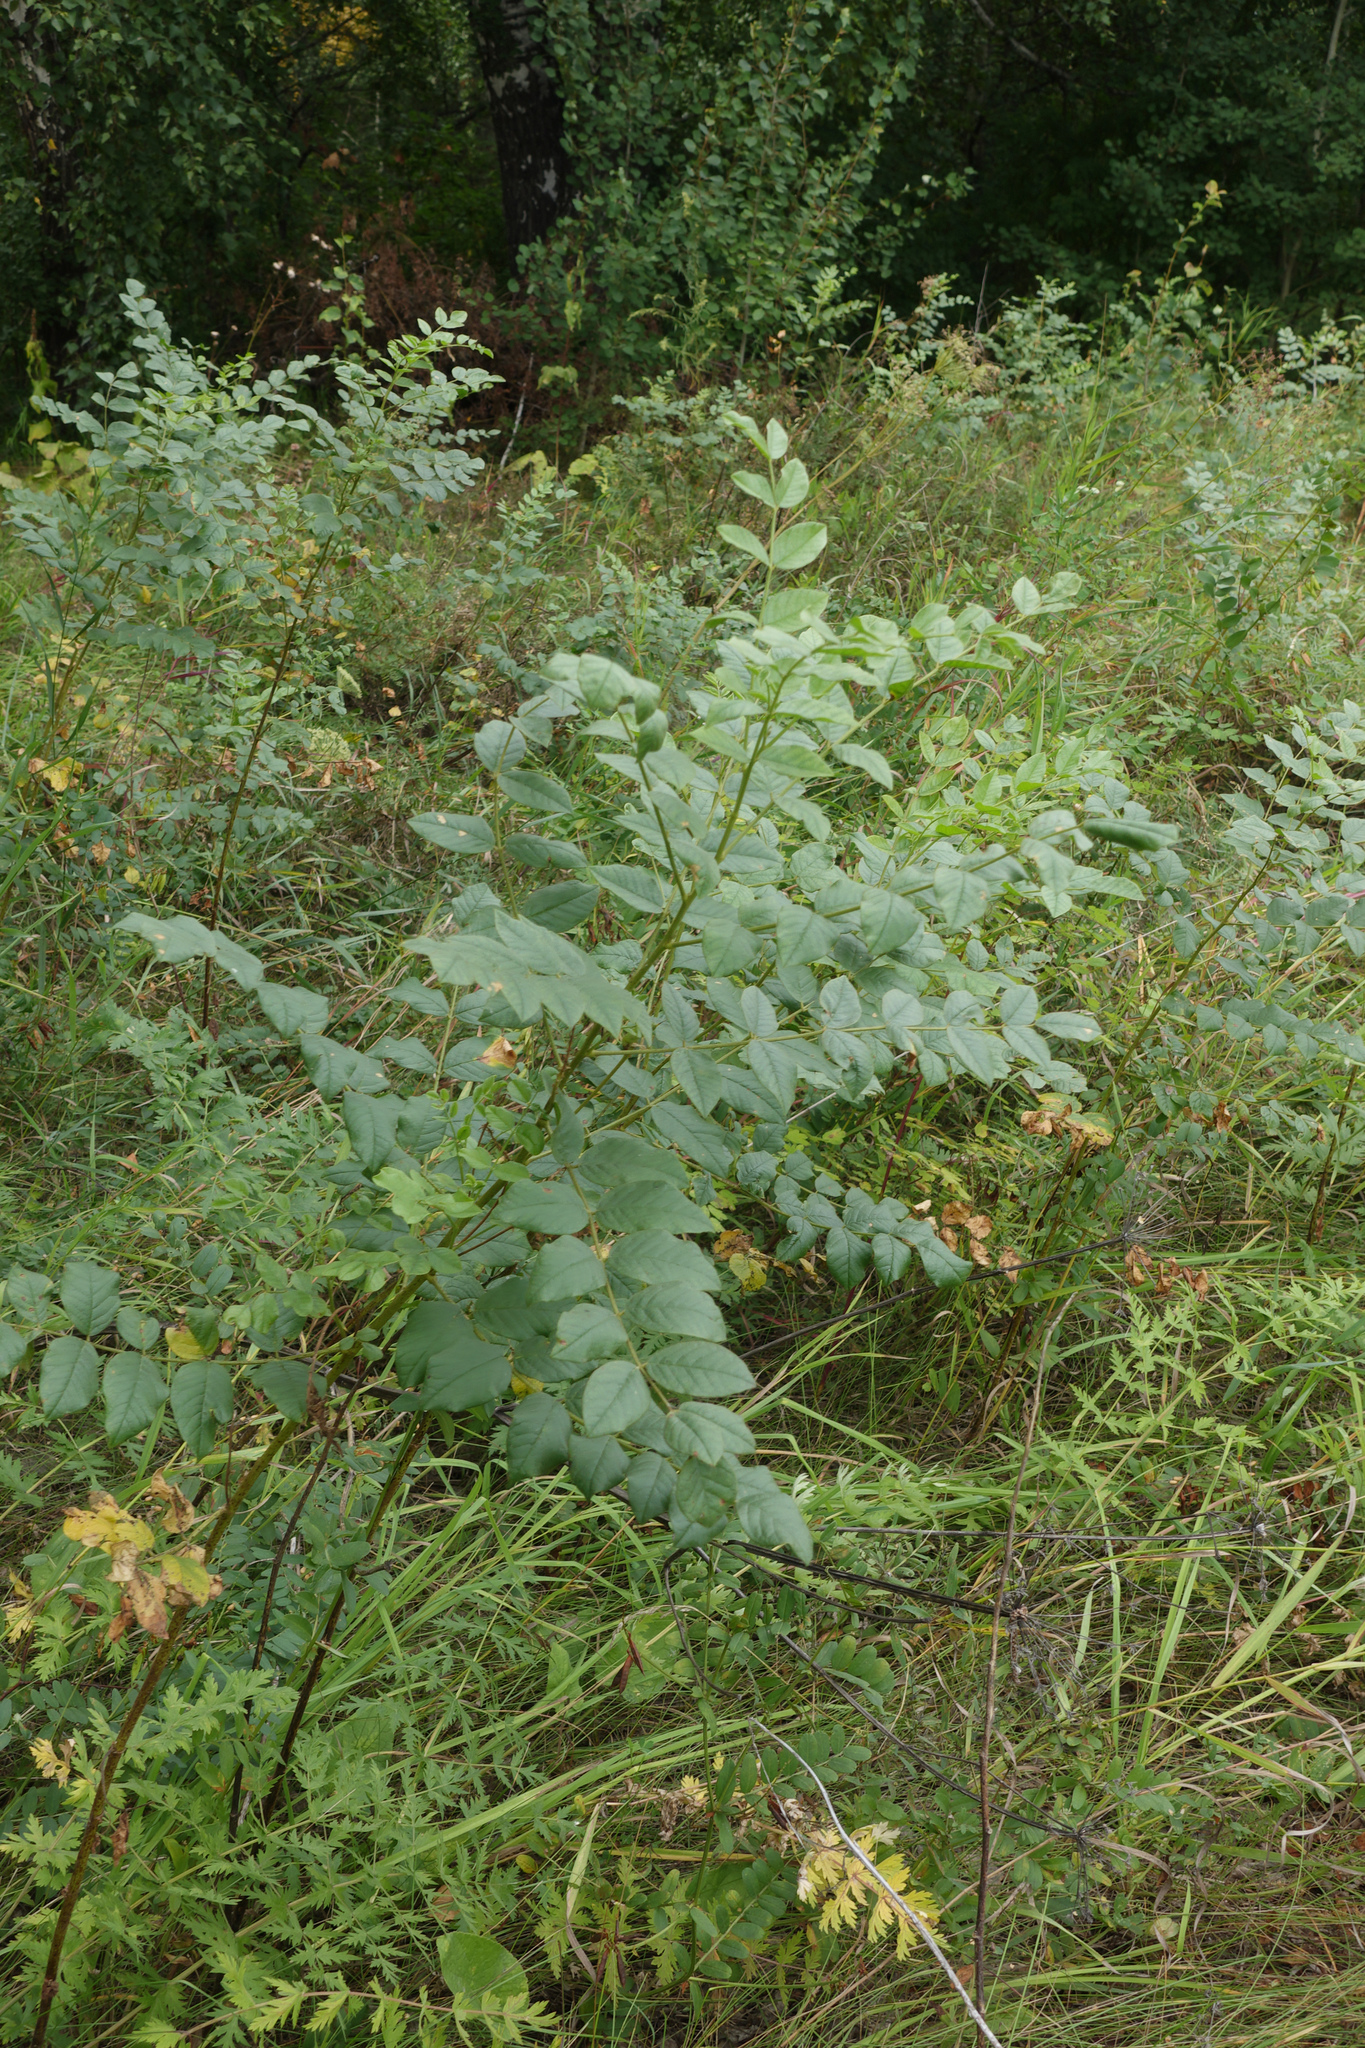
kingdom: Plantae
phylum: Tracheophyta
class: Magnoliopsida
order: Fabales
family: Fabaceae
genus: Glycyrrhiza
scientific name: Glycyrrhiza uralensis
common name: Chinese licorice
